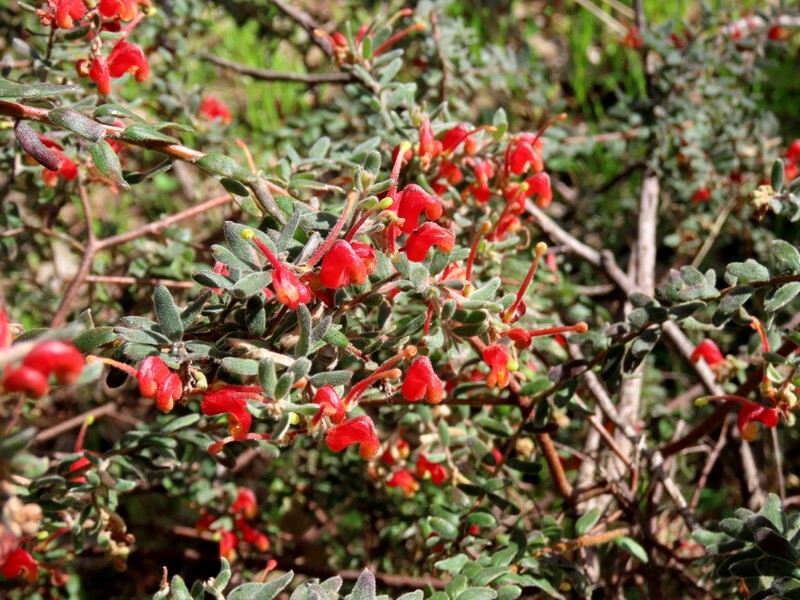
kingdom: Plantae
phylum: Tracheophyta
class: Magnoliopsida
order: Proteales
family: Proteaceae
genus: Grevillea
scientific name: Grevillea alpina
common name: Catclaws grevillea
